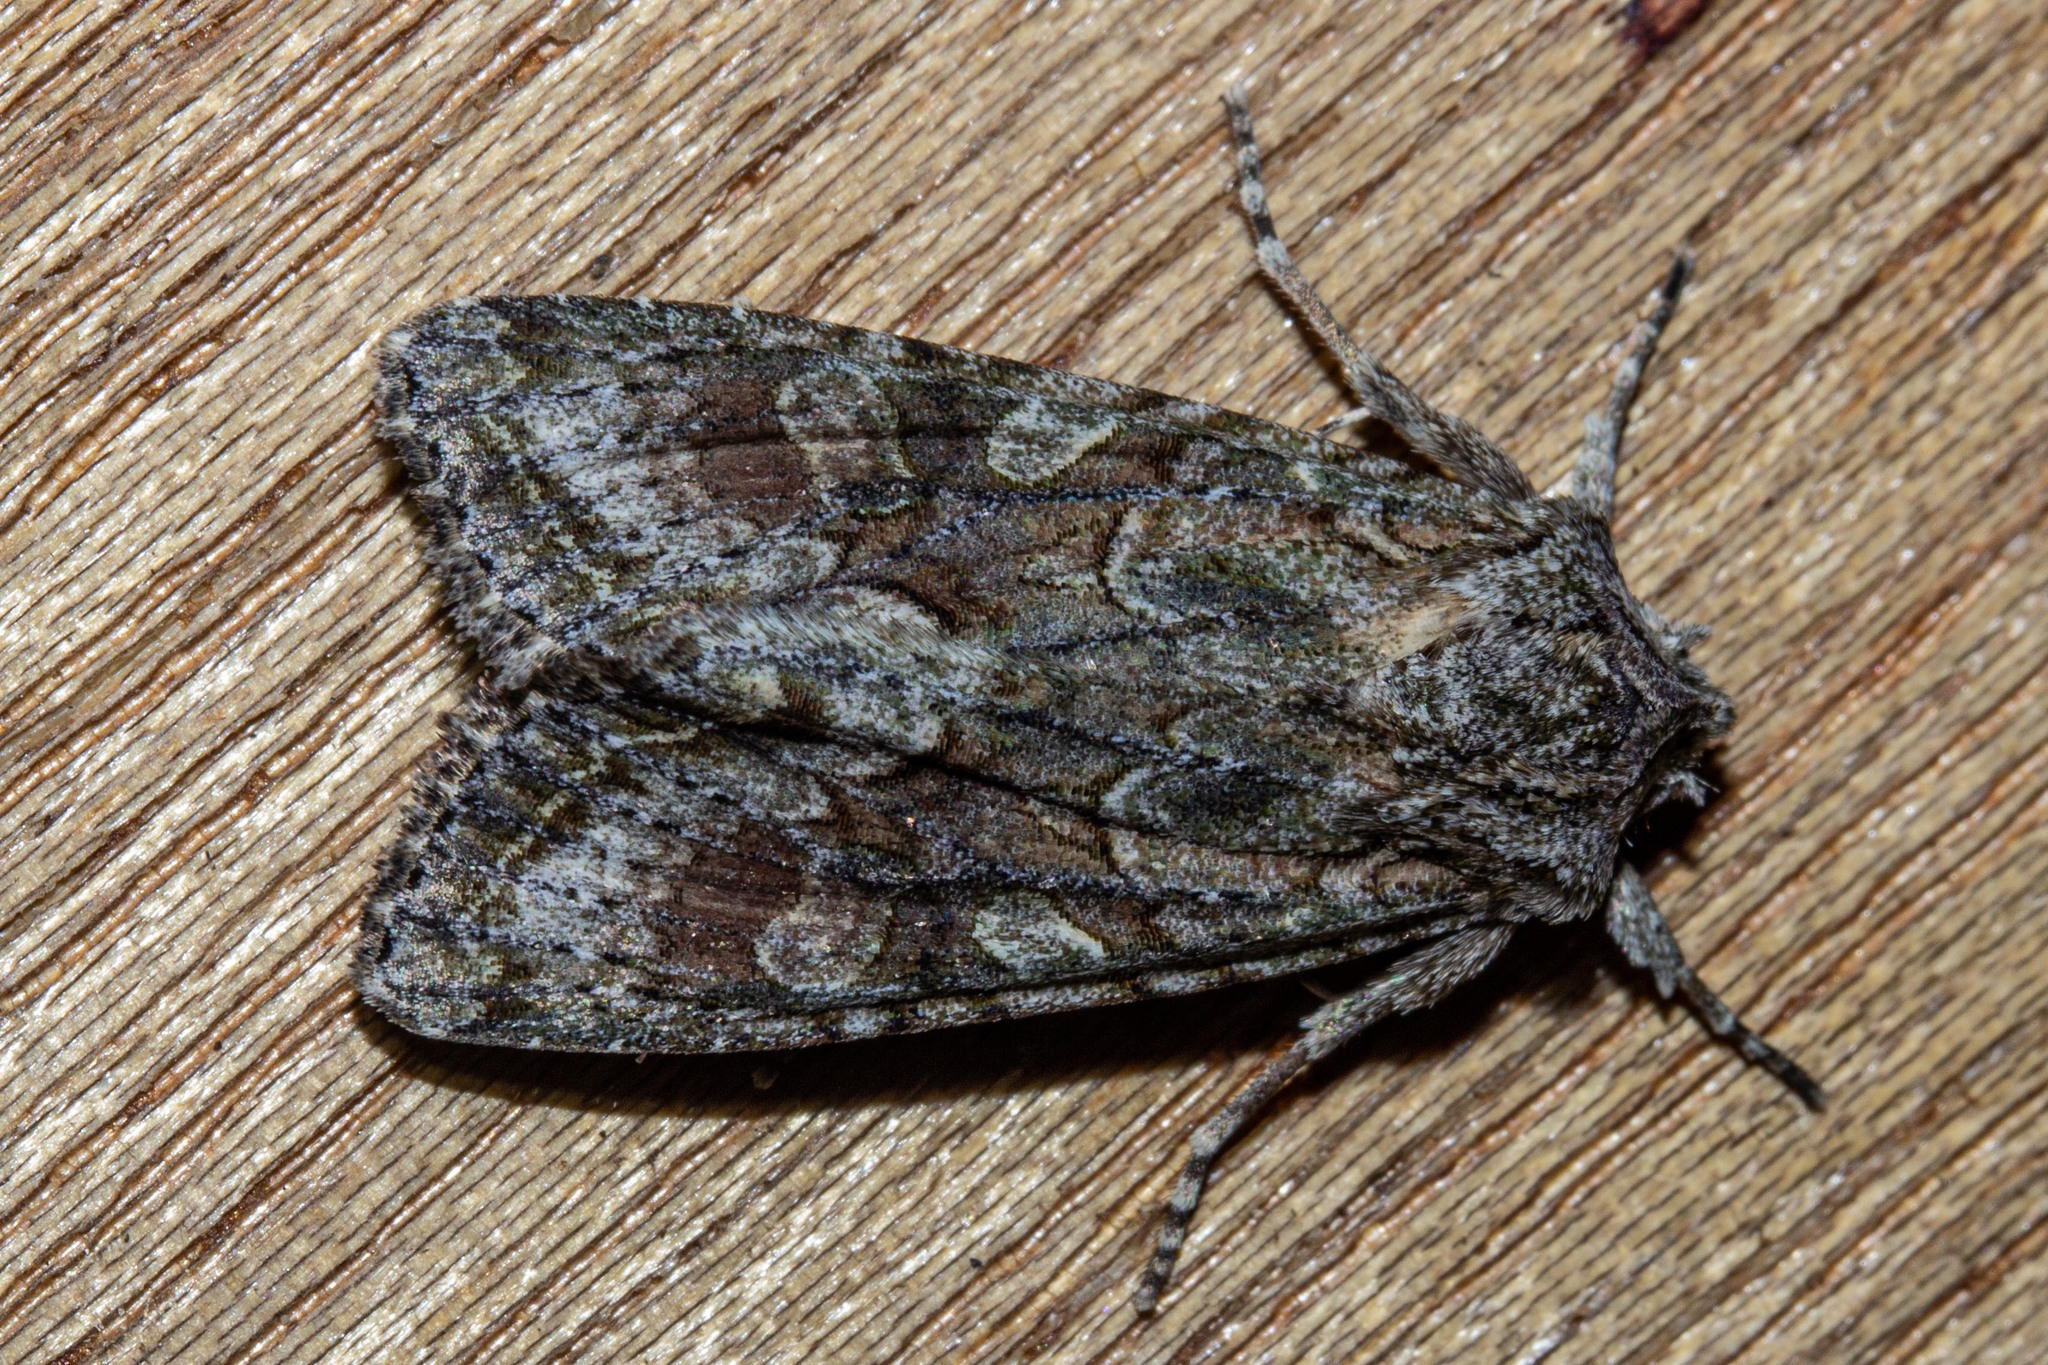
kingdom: Animalia
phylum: Arthropoda
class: Insecta
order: Lepidoptera
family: Noctuidae
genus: Ichneutica
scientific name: Ichneutica mutans
